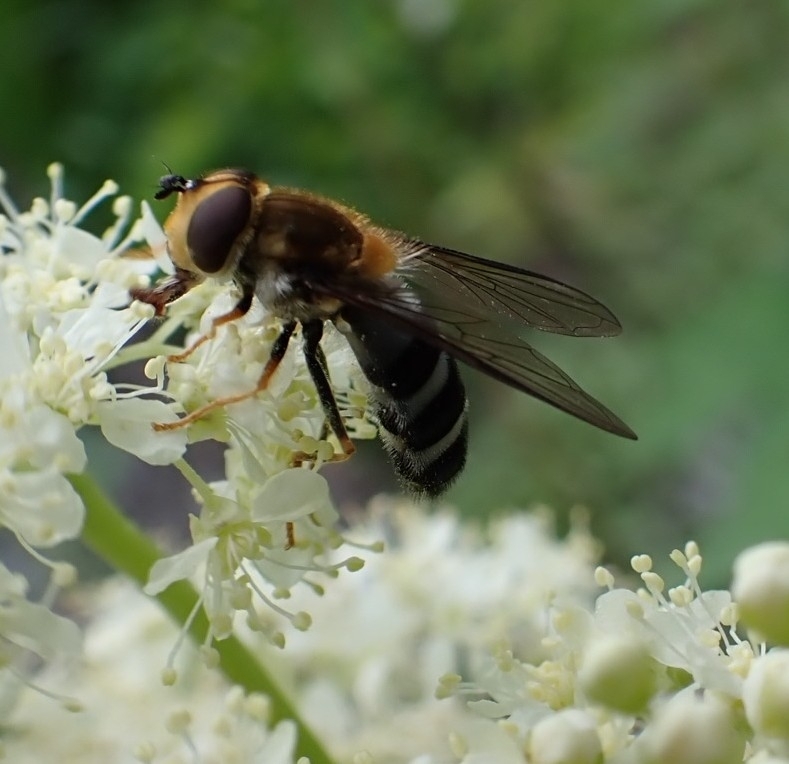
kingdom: Animalia
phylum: Arthropoda
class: Insecta
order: Diptera
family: Syrphidae
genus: Leucozona
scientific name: Leucozona glaucia
